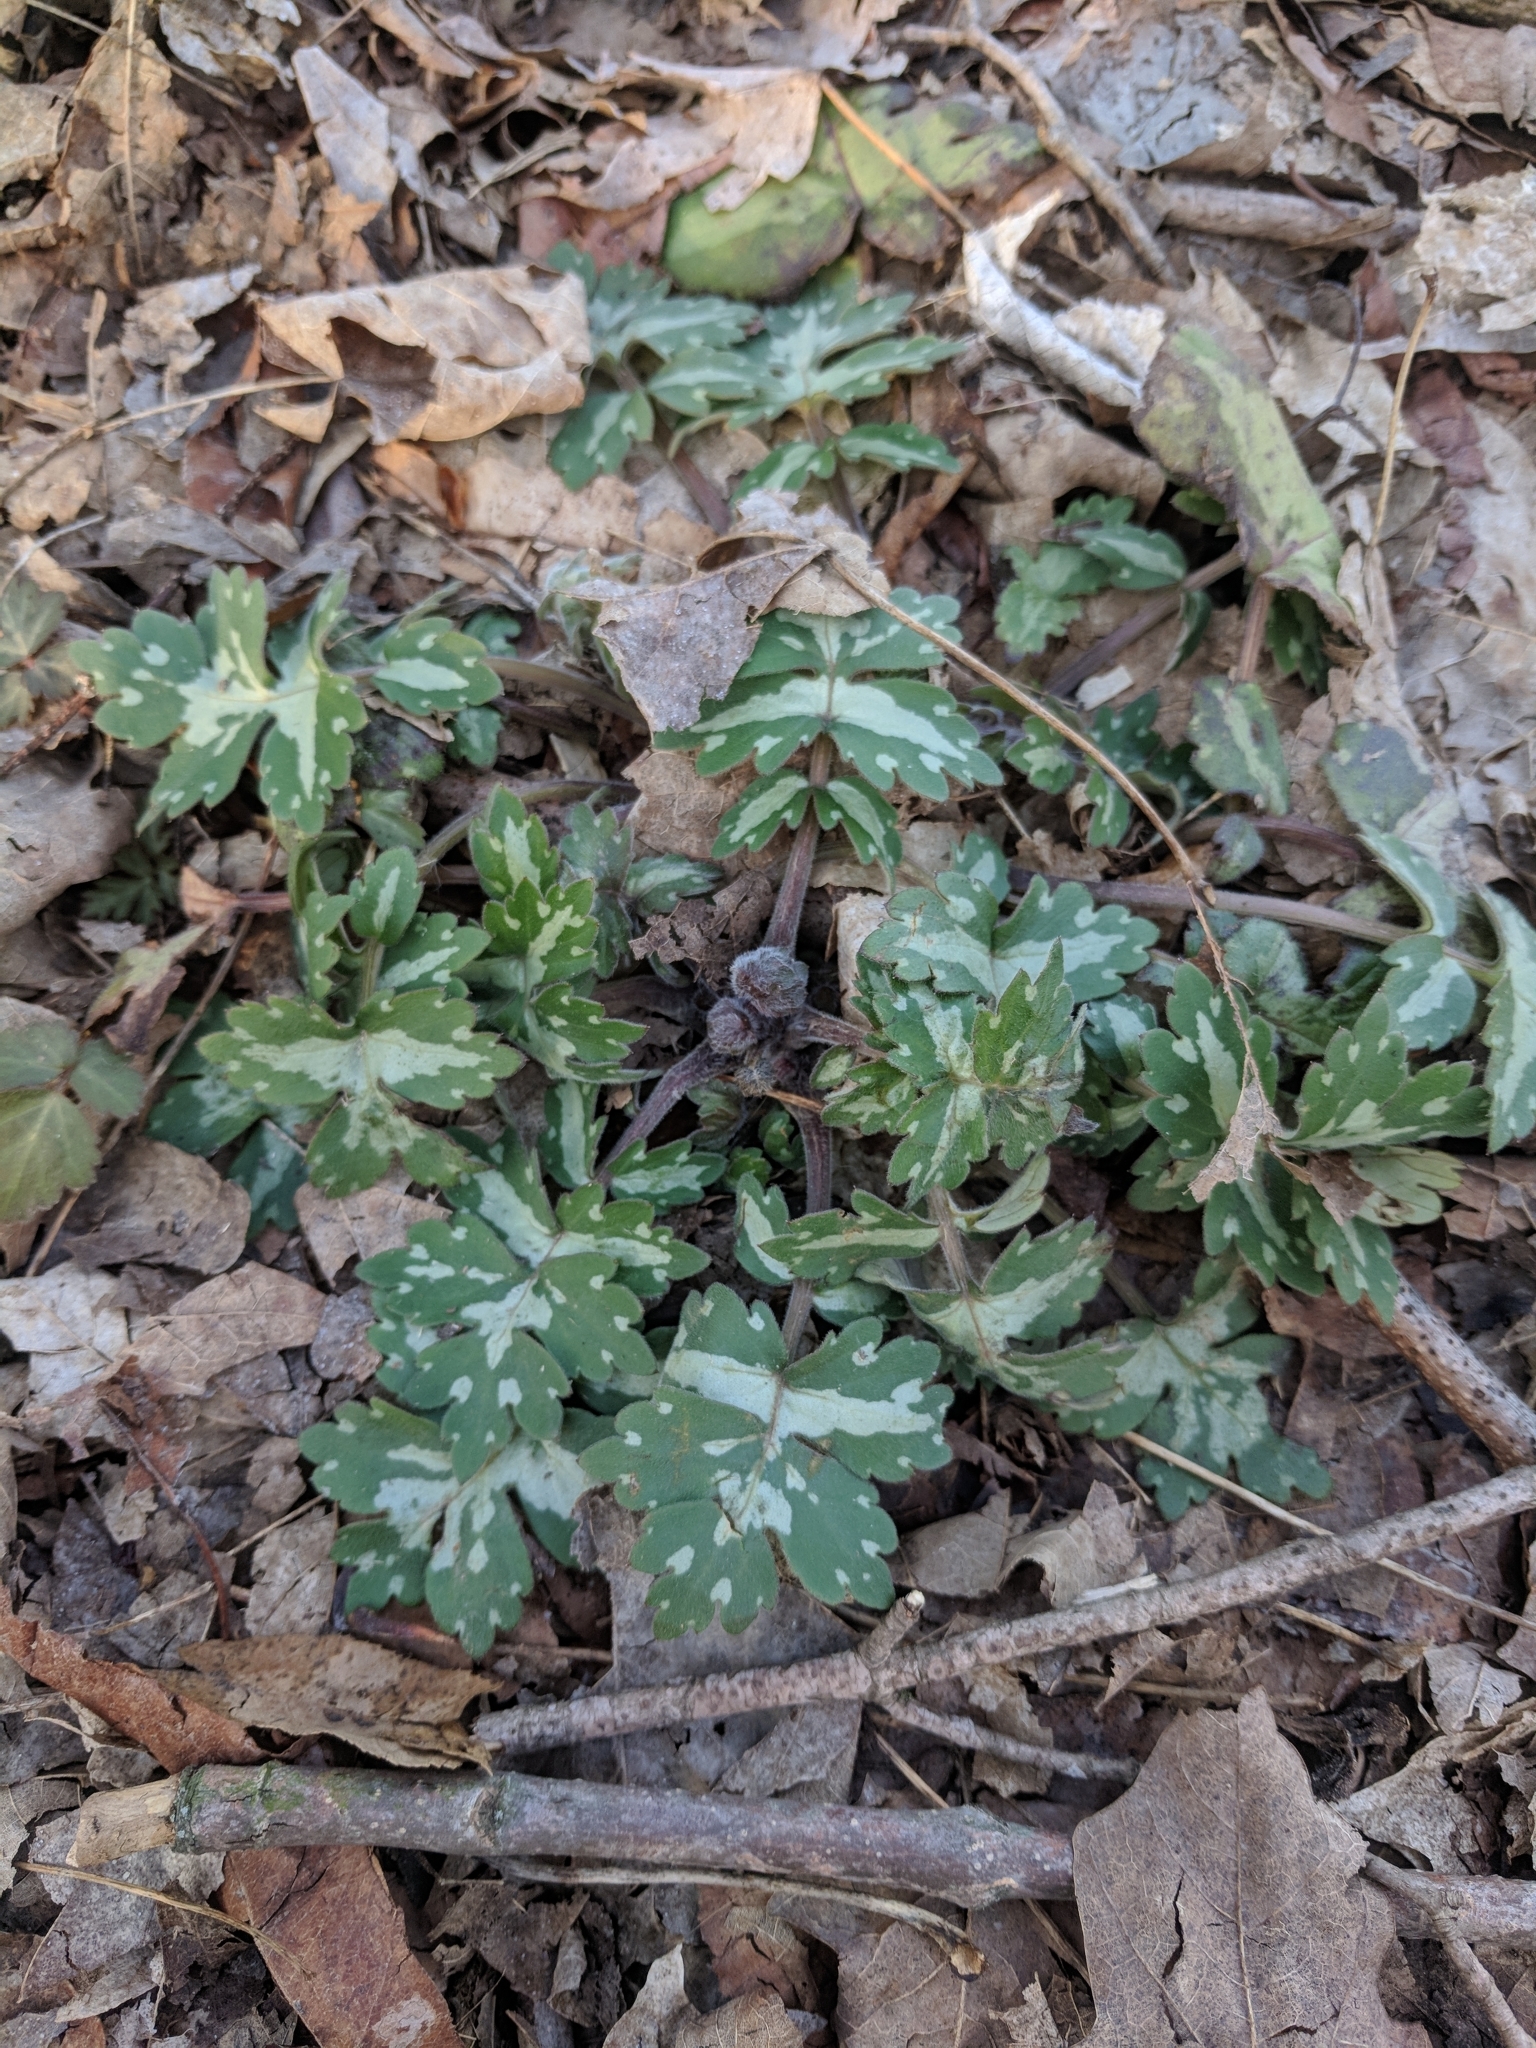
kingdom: Plantae
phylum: Tracheophyta
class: Magnoliopsida
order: Boraginales
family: Hydrophyllaceae
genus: Hydrophyllum
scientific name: Hydrophyllum appendiculatum
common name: Appendaged waterleaf
